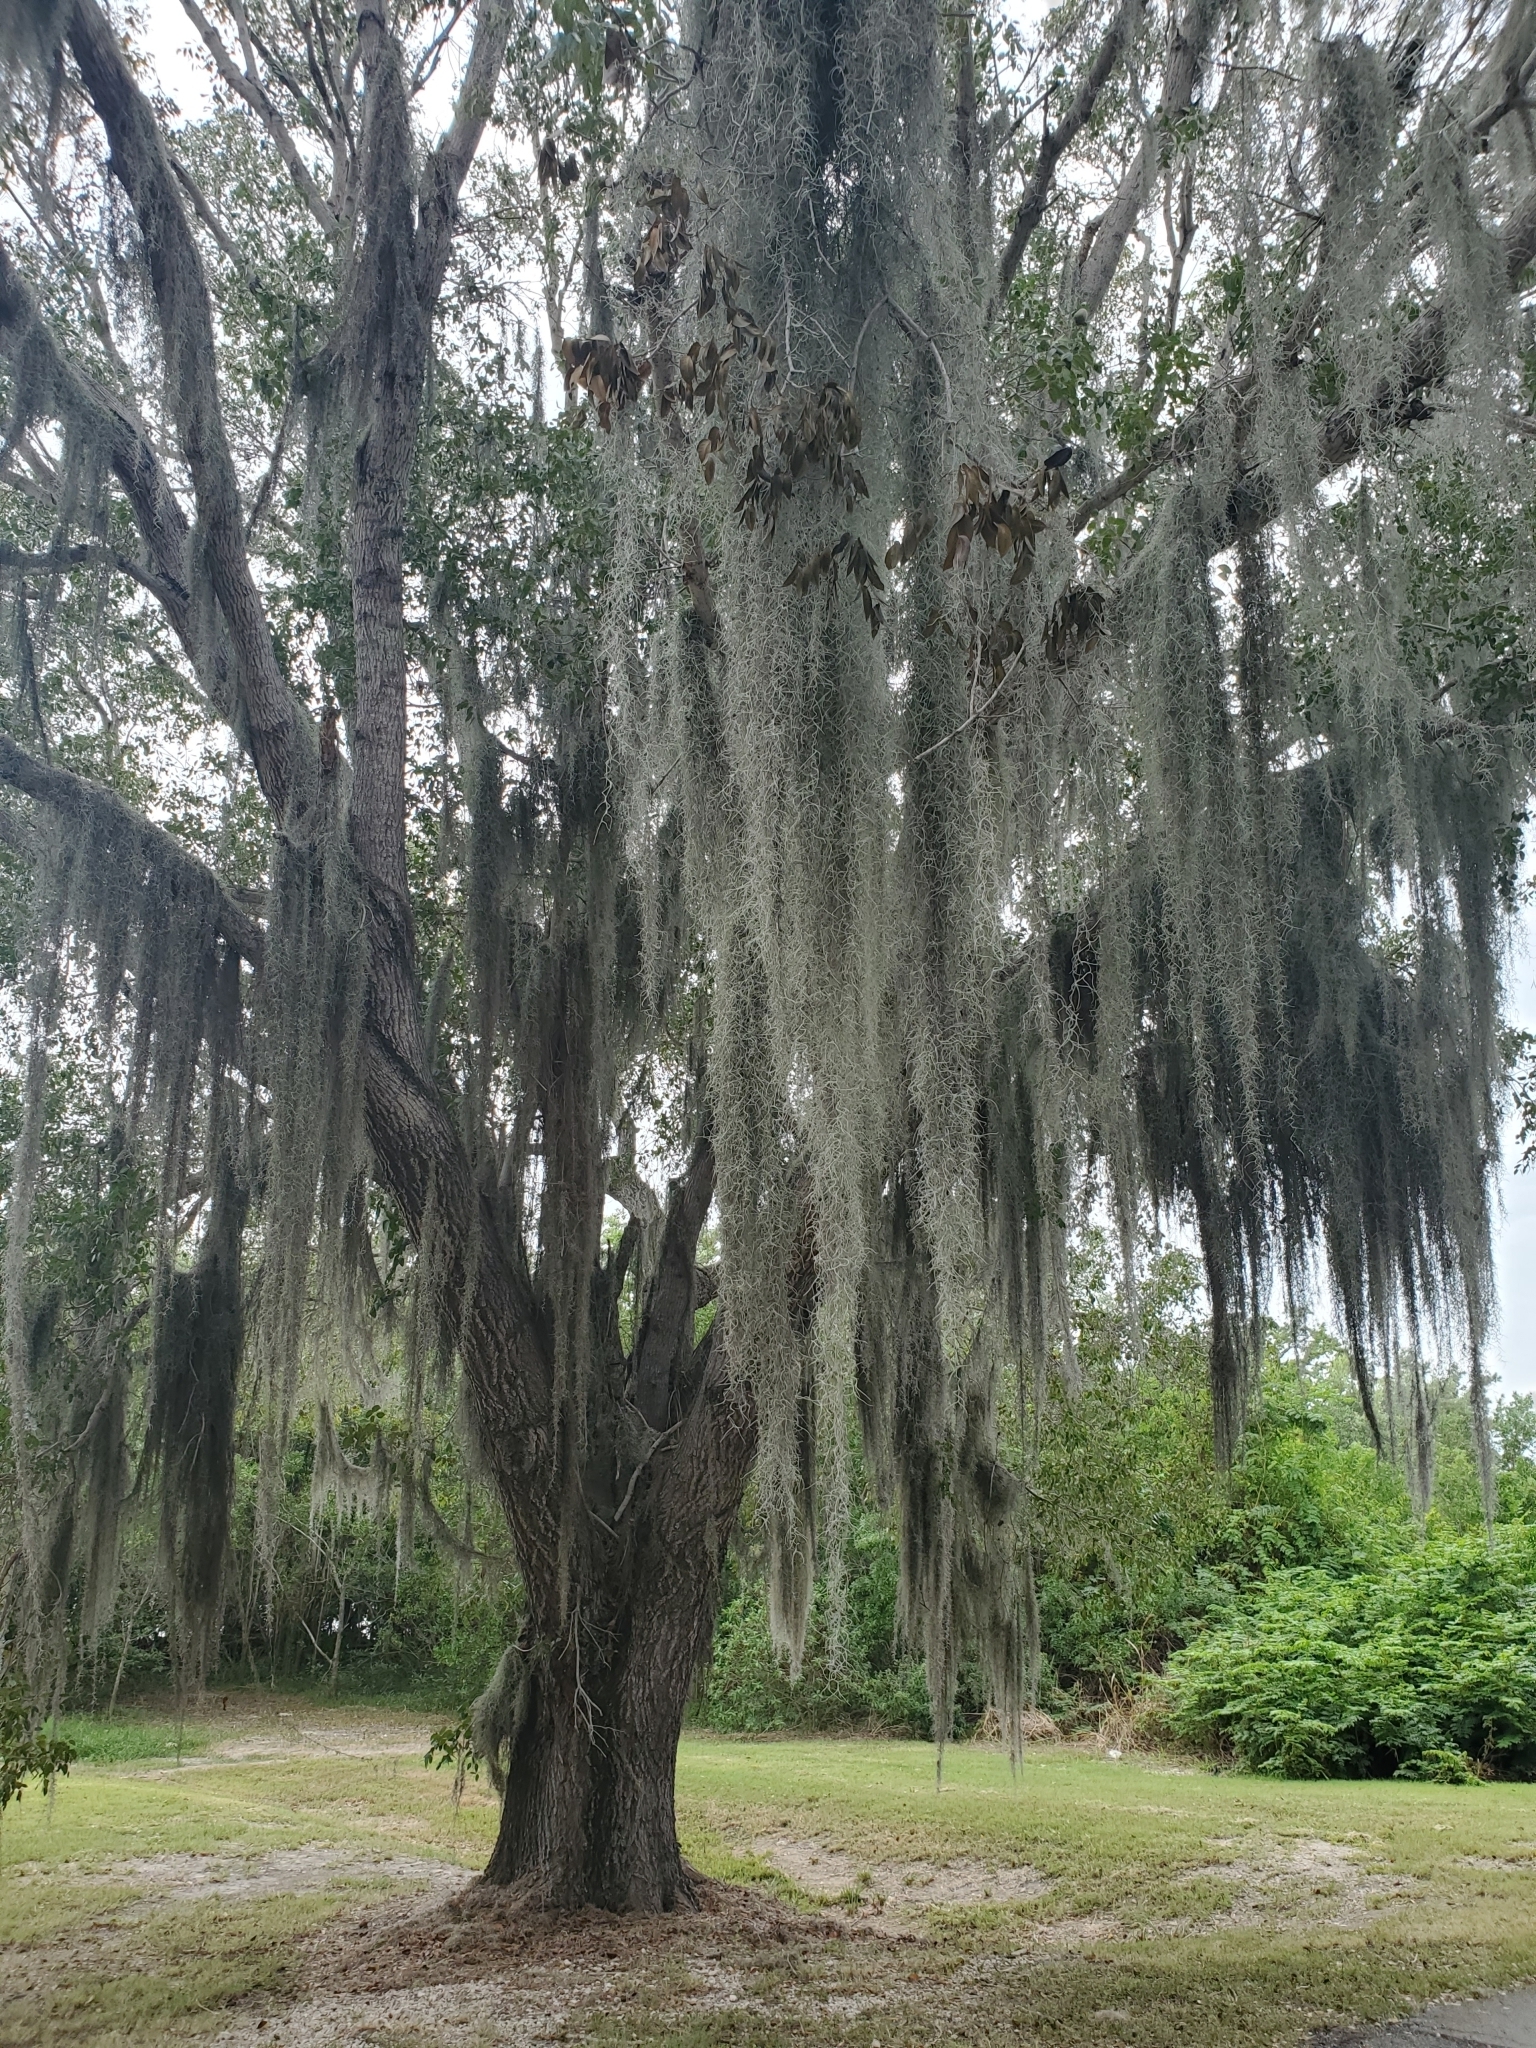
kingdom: Plantae
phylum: Tracheophyta
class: Liliopsida
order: Poales
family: Bromeliaceae
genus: Tillandsia
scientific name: Tillandsia usneoides
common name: Spanish moss
